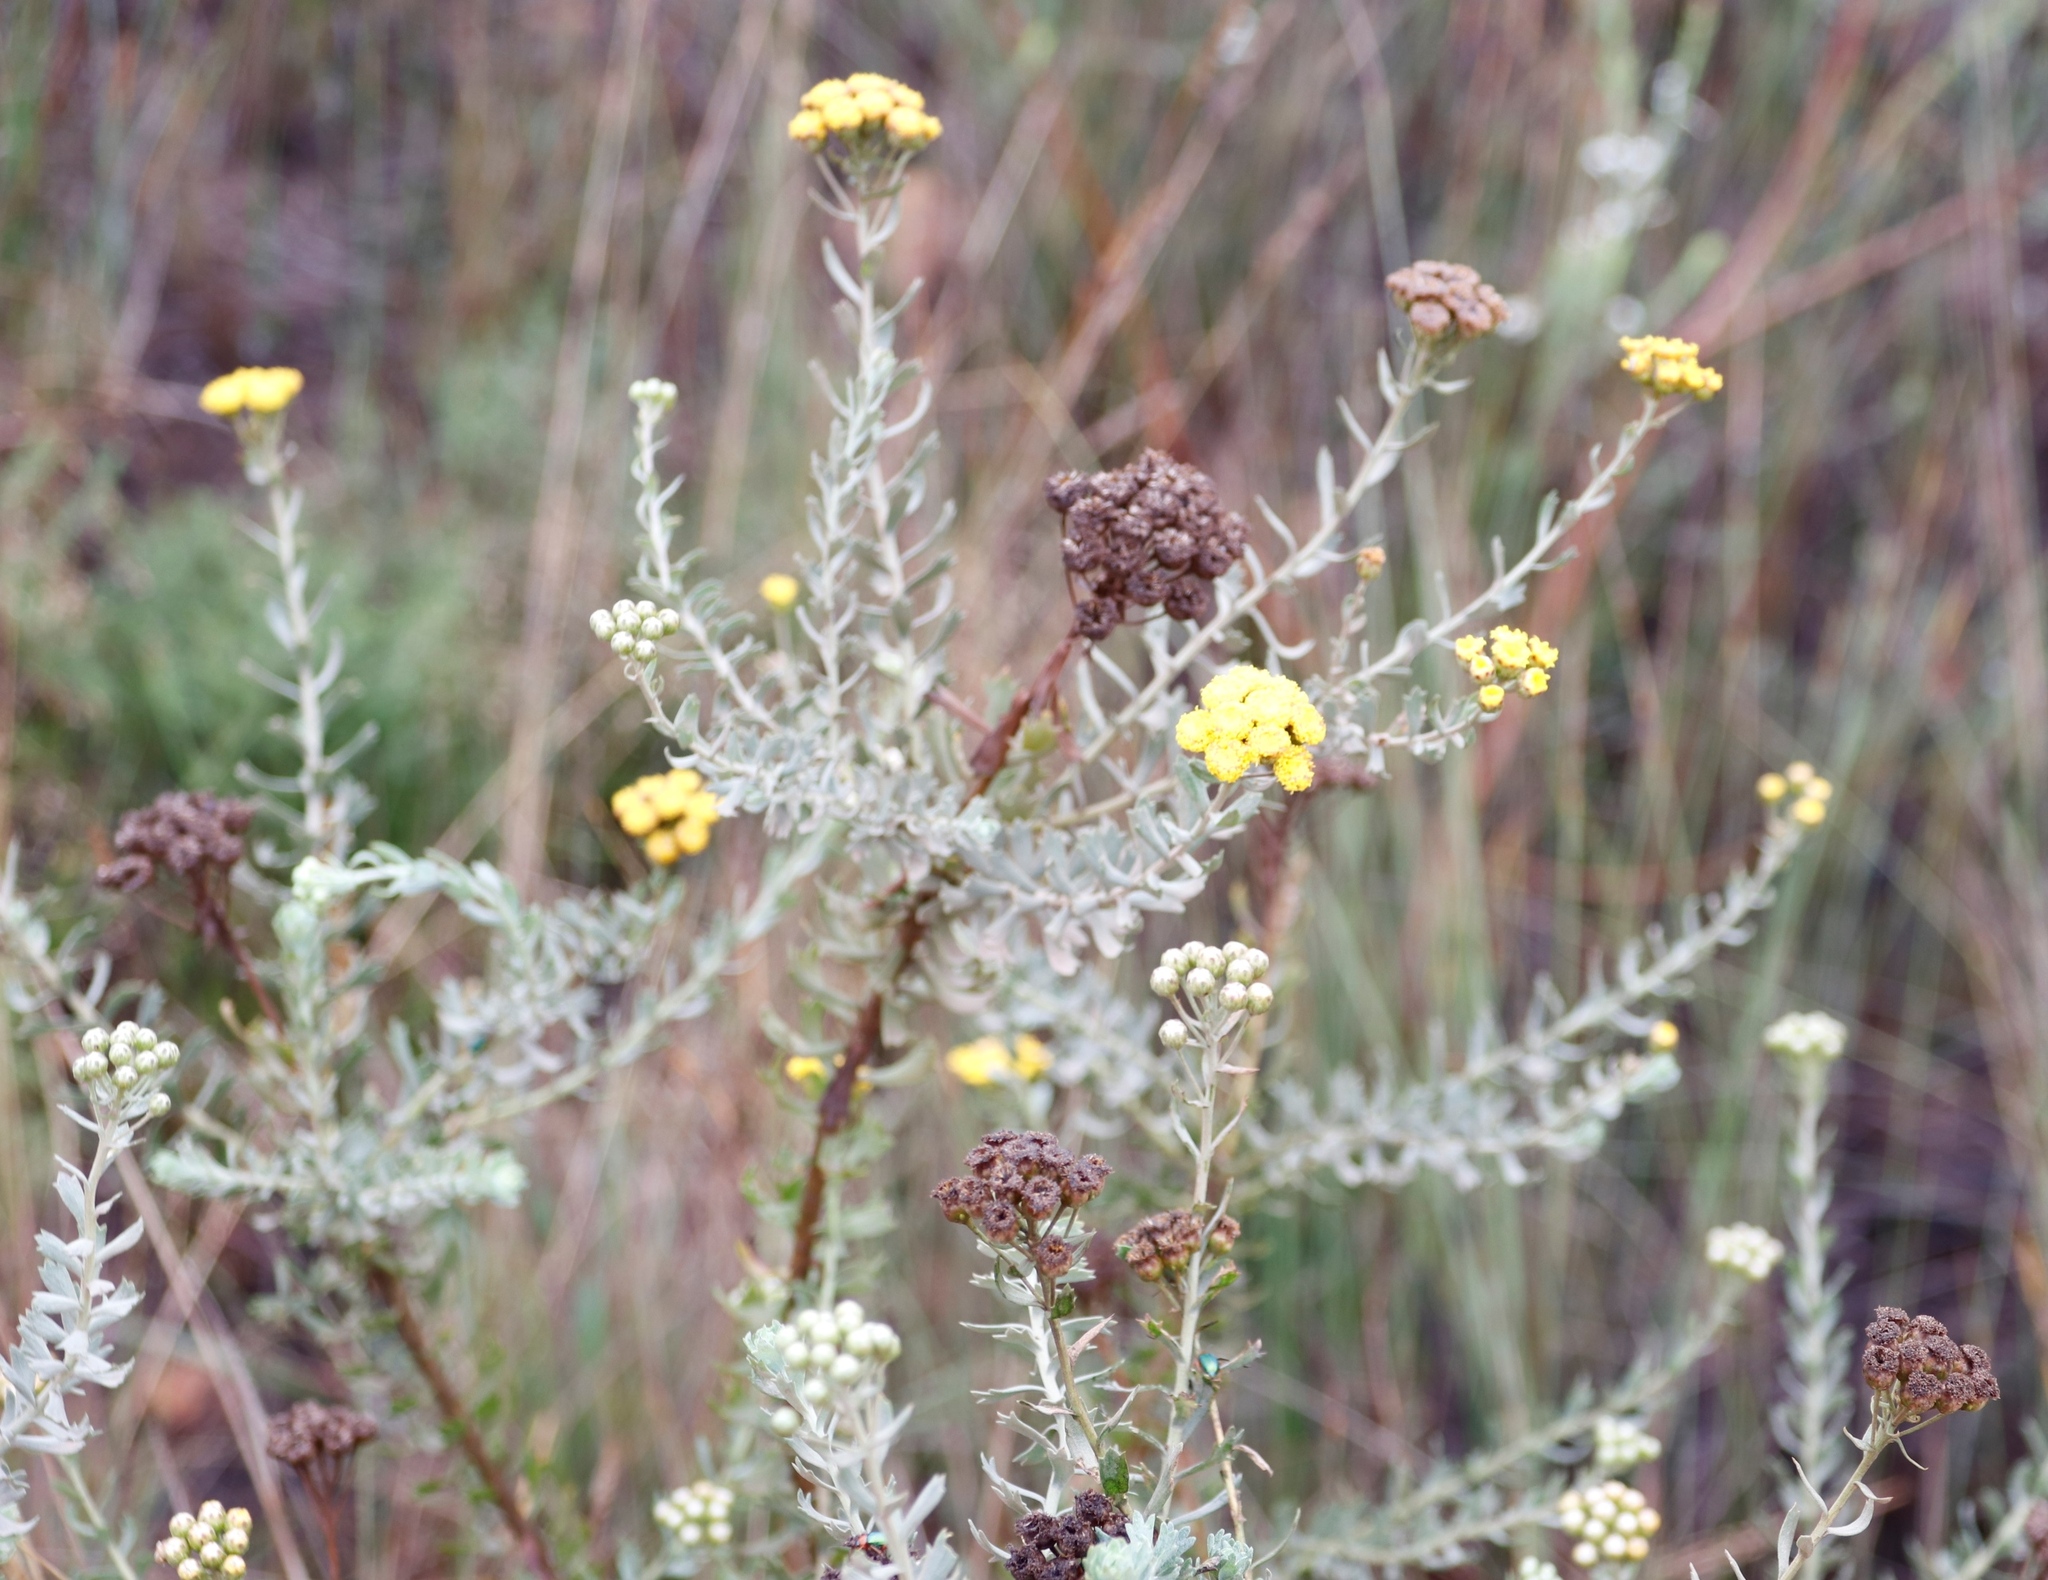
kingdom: Plantae
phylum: Tracheophyta
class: Magnoliopsida
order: Asterales
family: Asteraceae
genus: Athanasia
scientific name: Athanasia trifurcata
